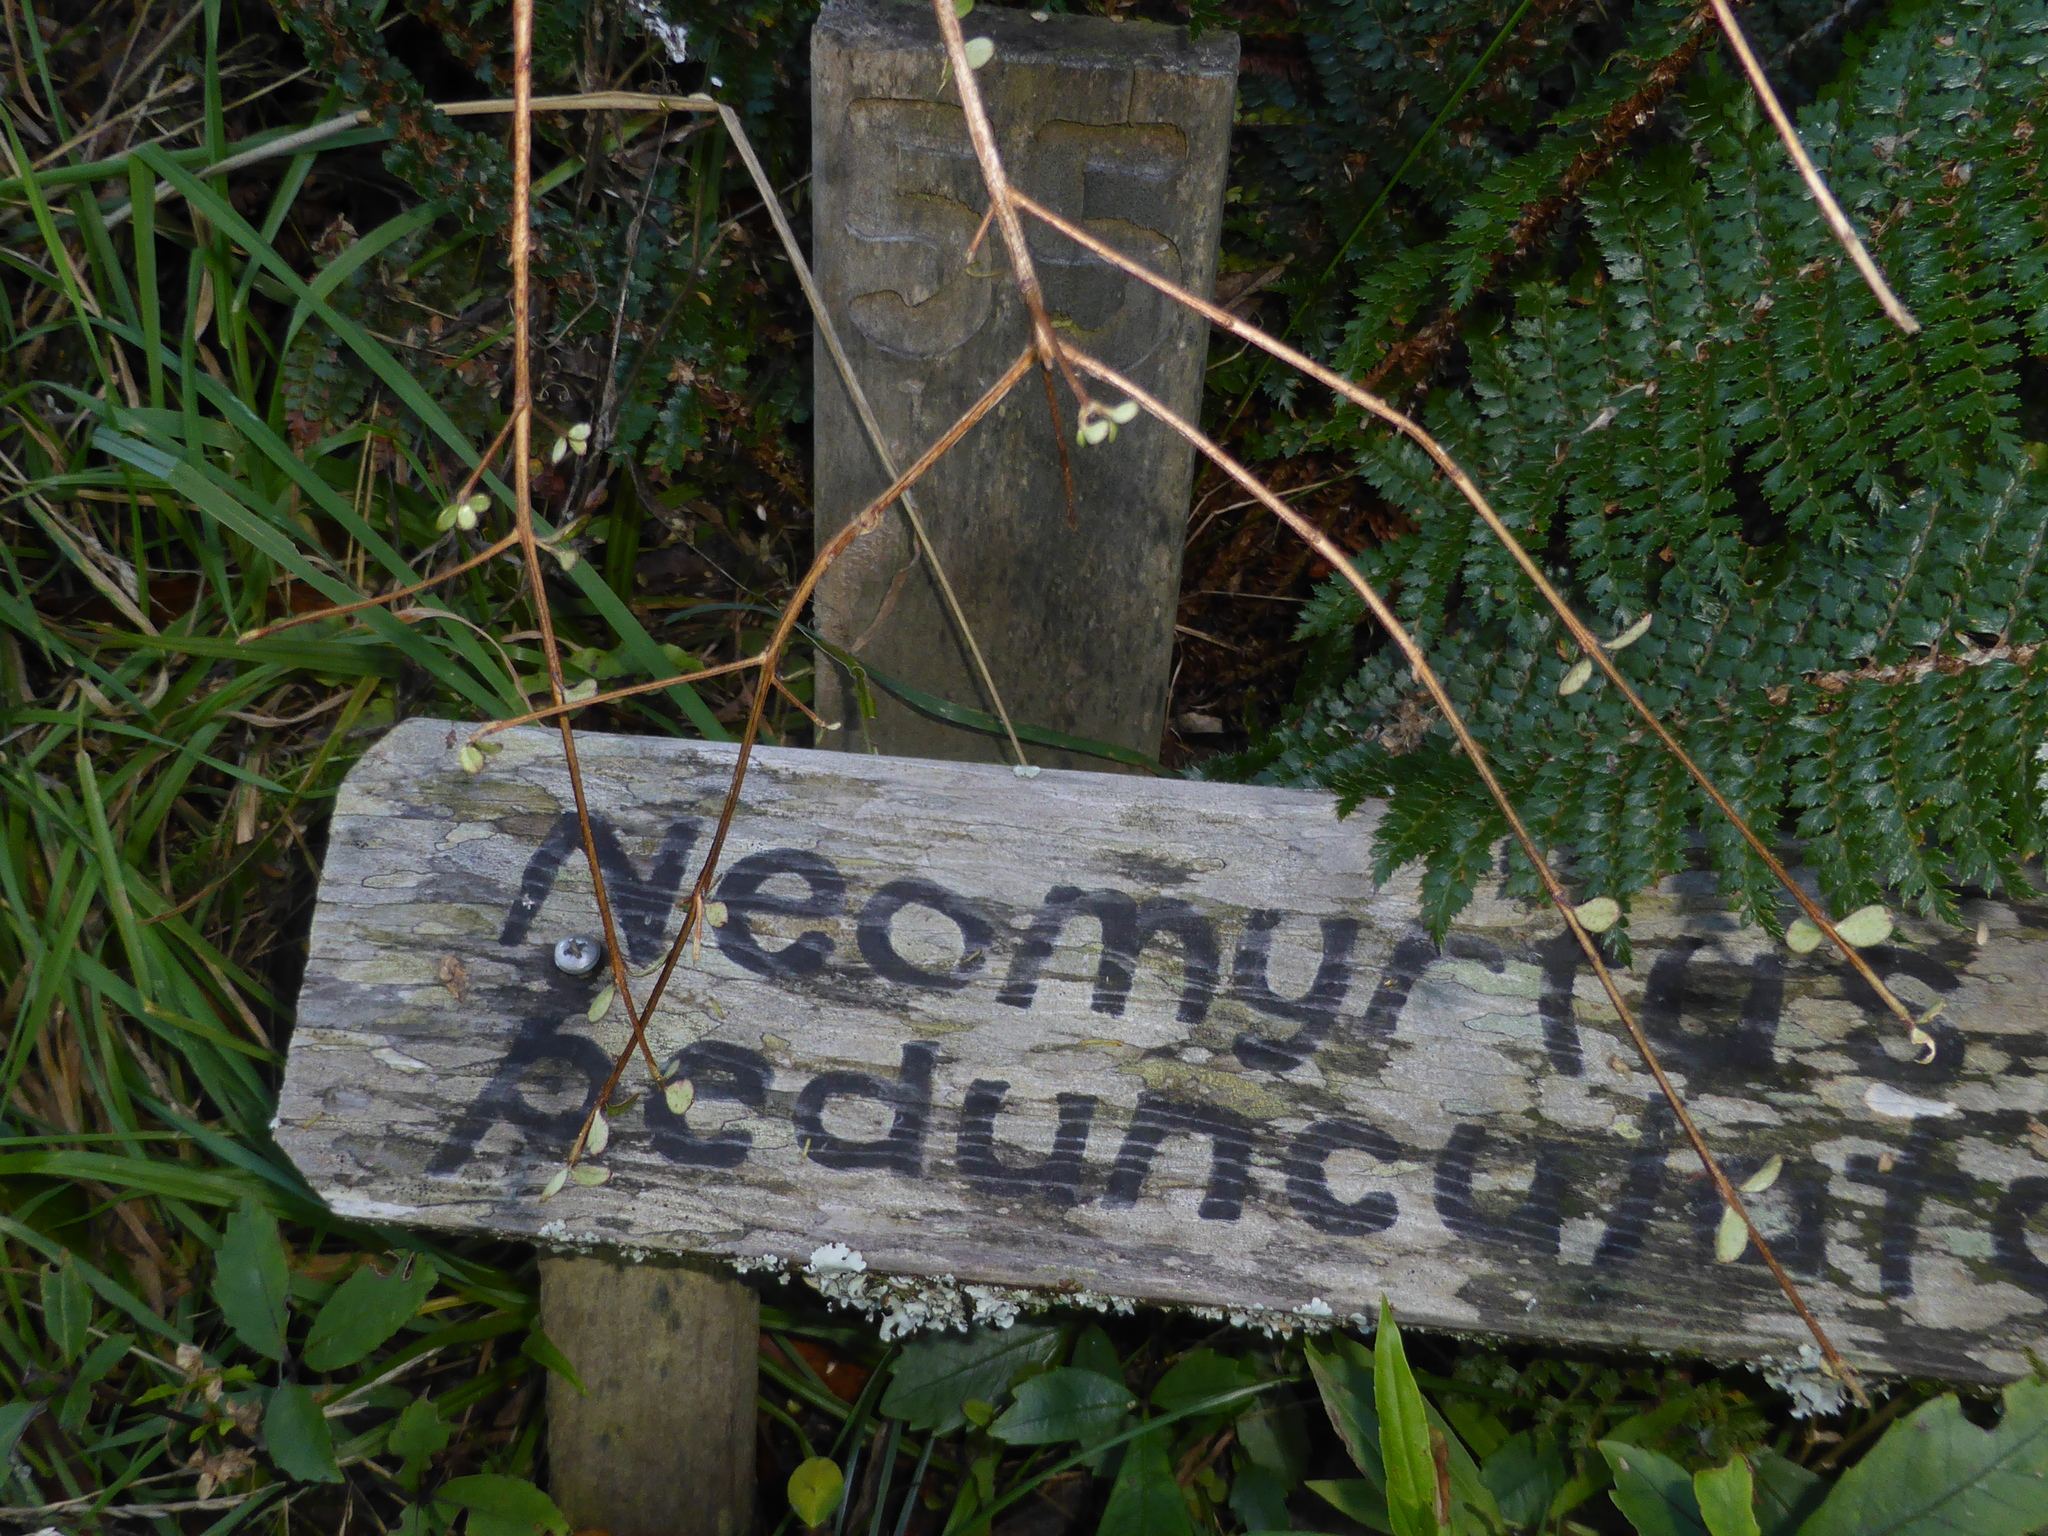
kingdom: Plantae
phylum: Tracheophyta
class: Magnoliopsida
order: Myrtales
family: Myrtaceae
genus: Neomyrtus
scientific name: Neomyrtus pedunculata
